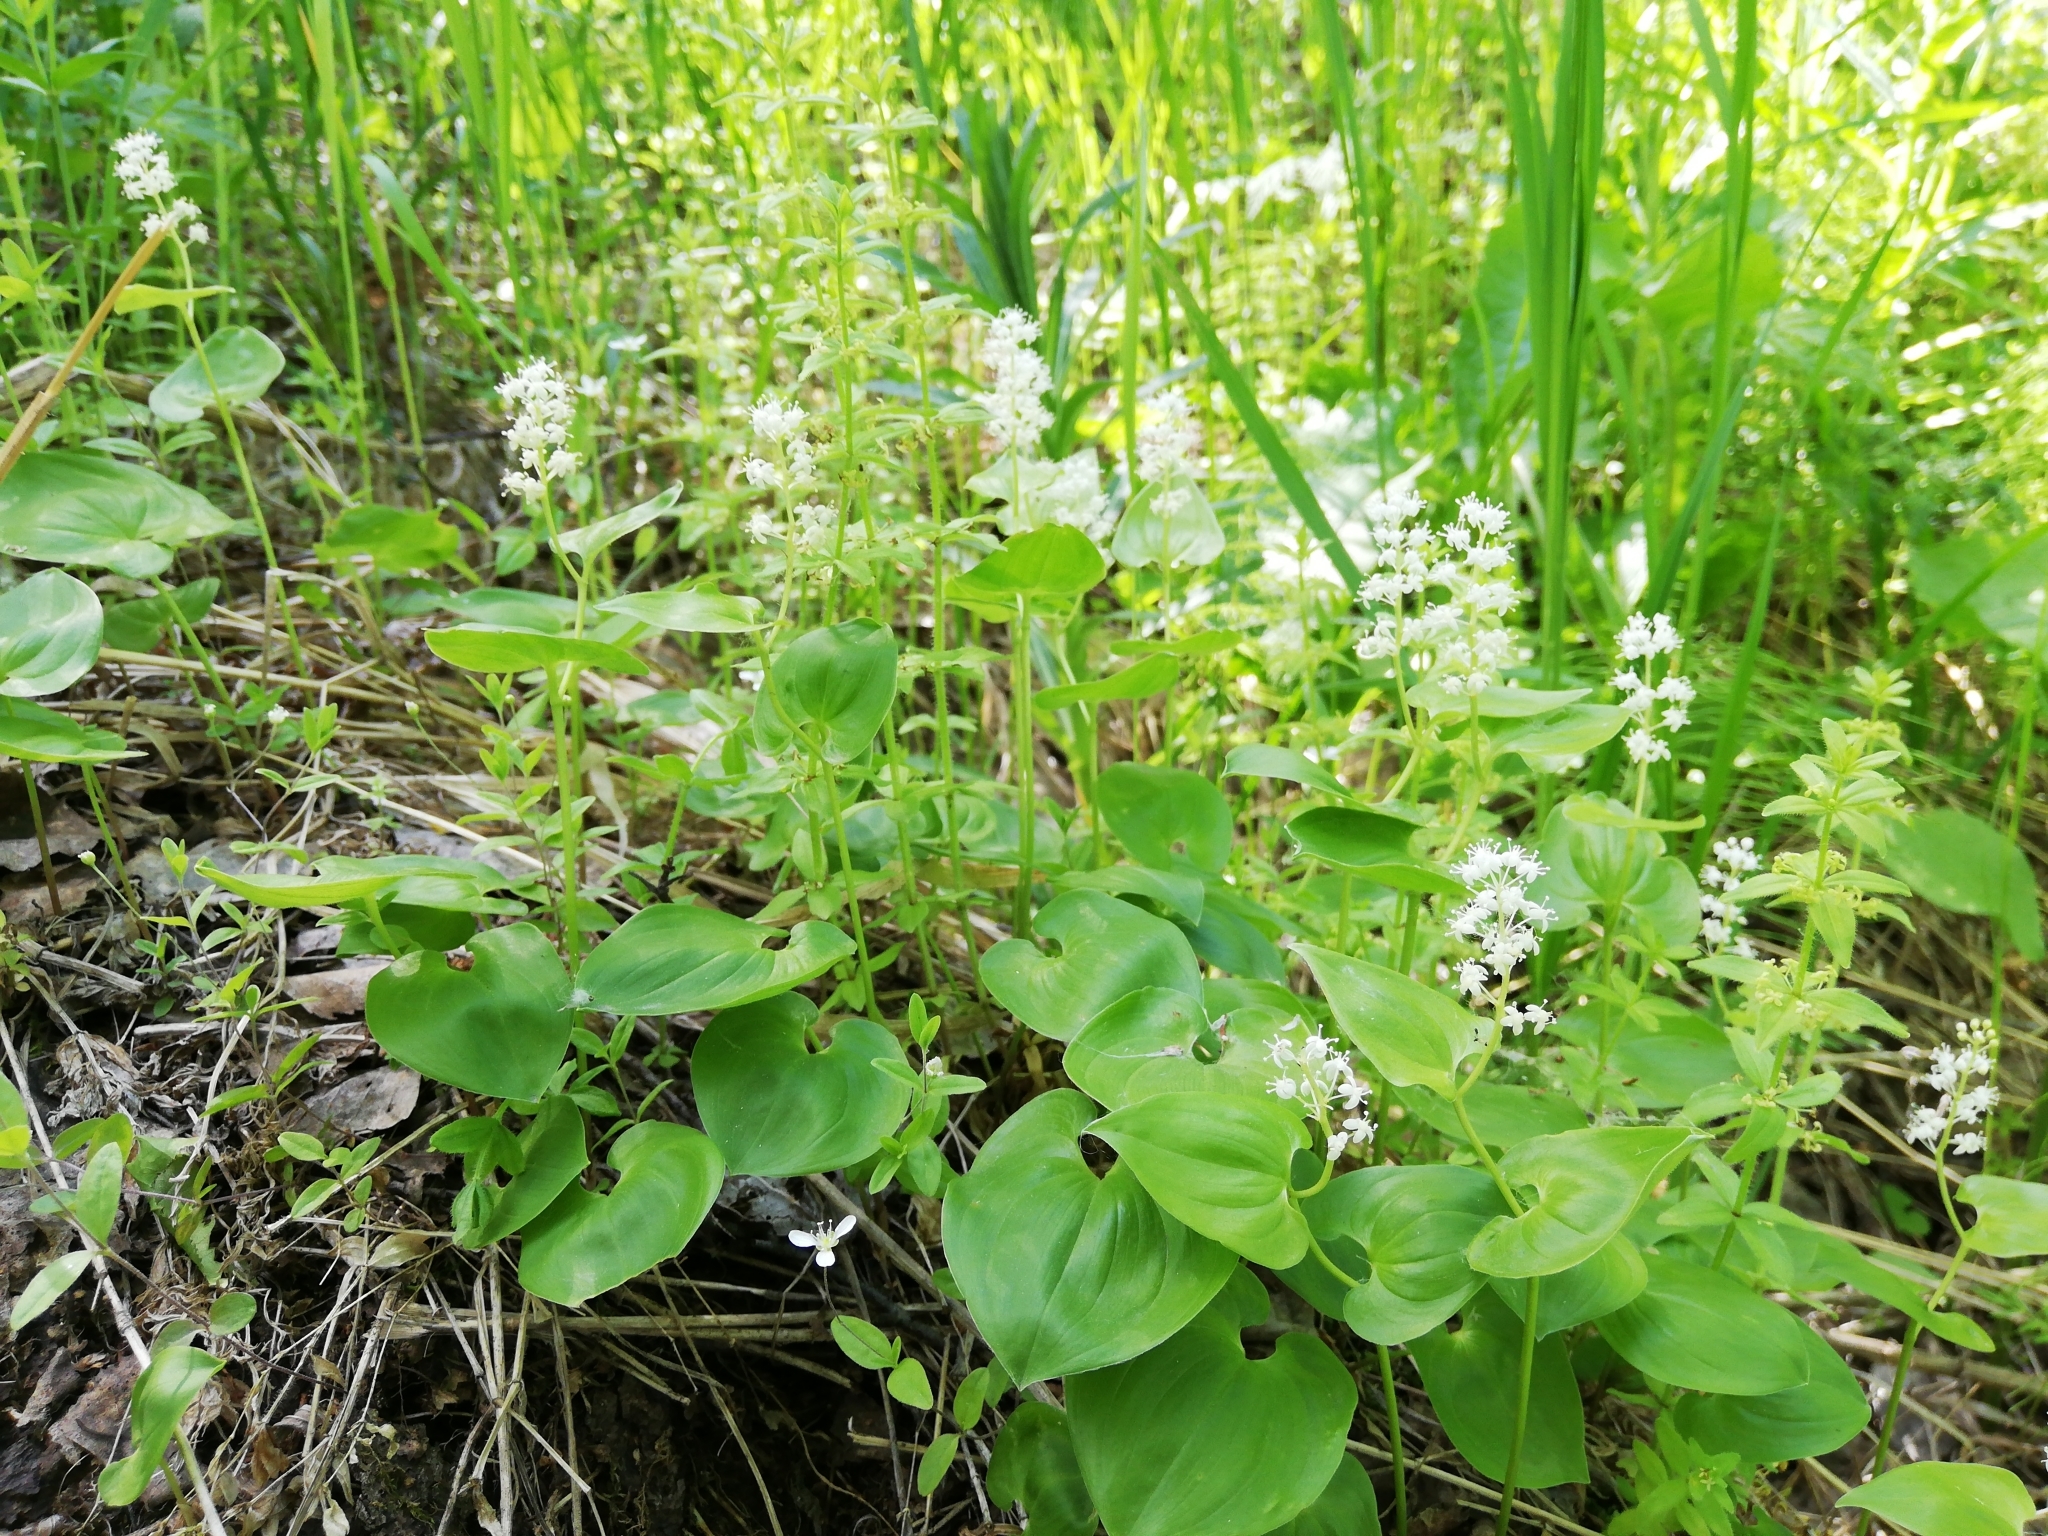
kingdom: Plantae
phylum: Tracheophyta
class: Liliopsida
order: Asparagales
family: Asparagaceae
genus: Maianthemum
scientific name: Maianthemum bifolium
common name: May lily
